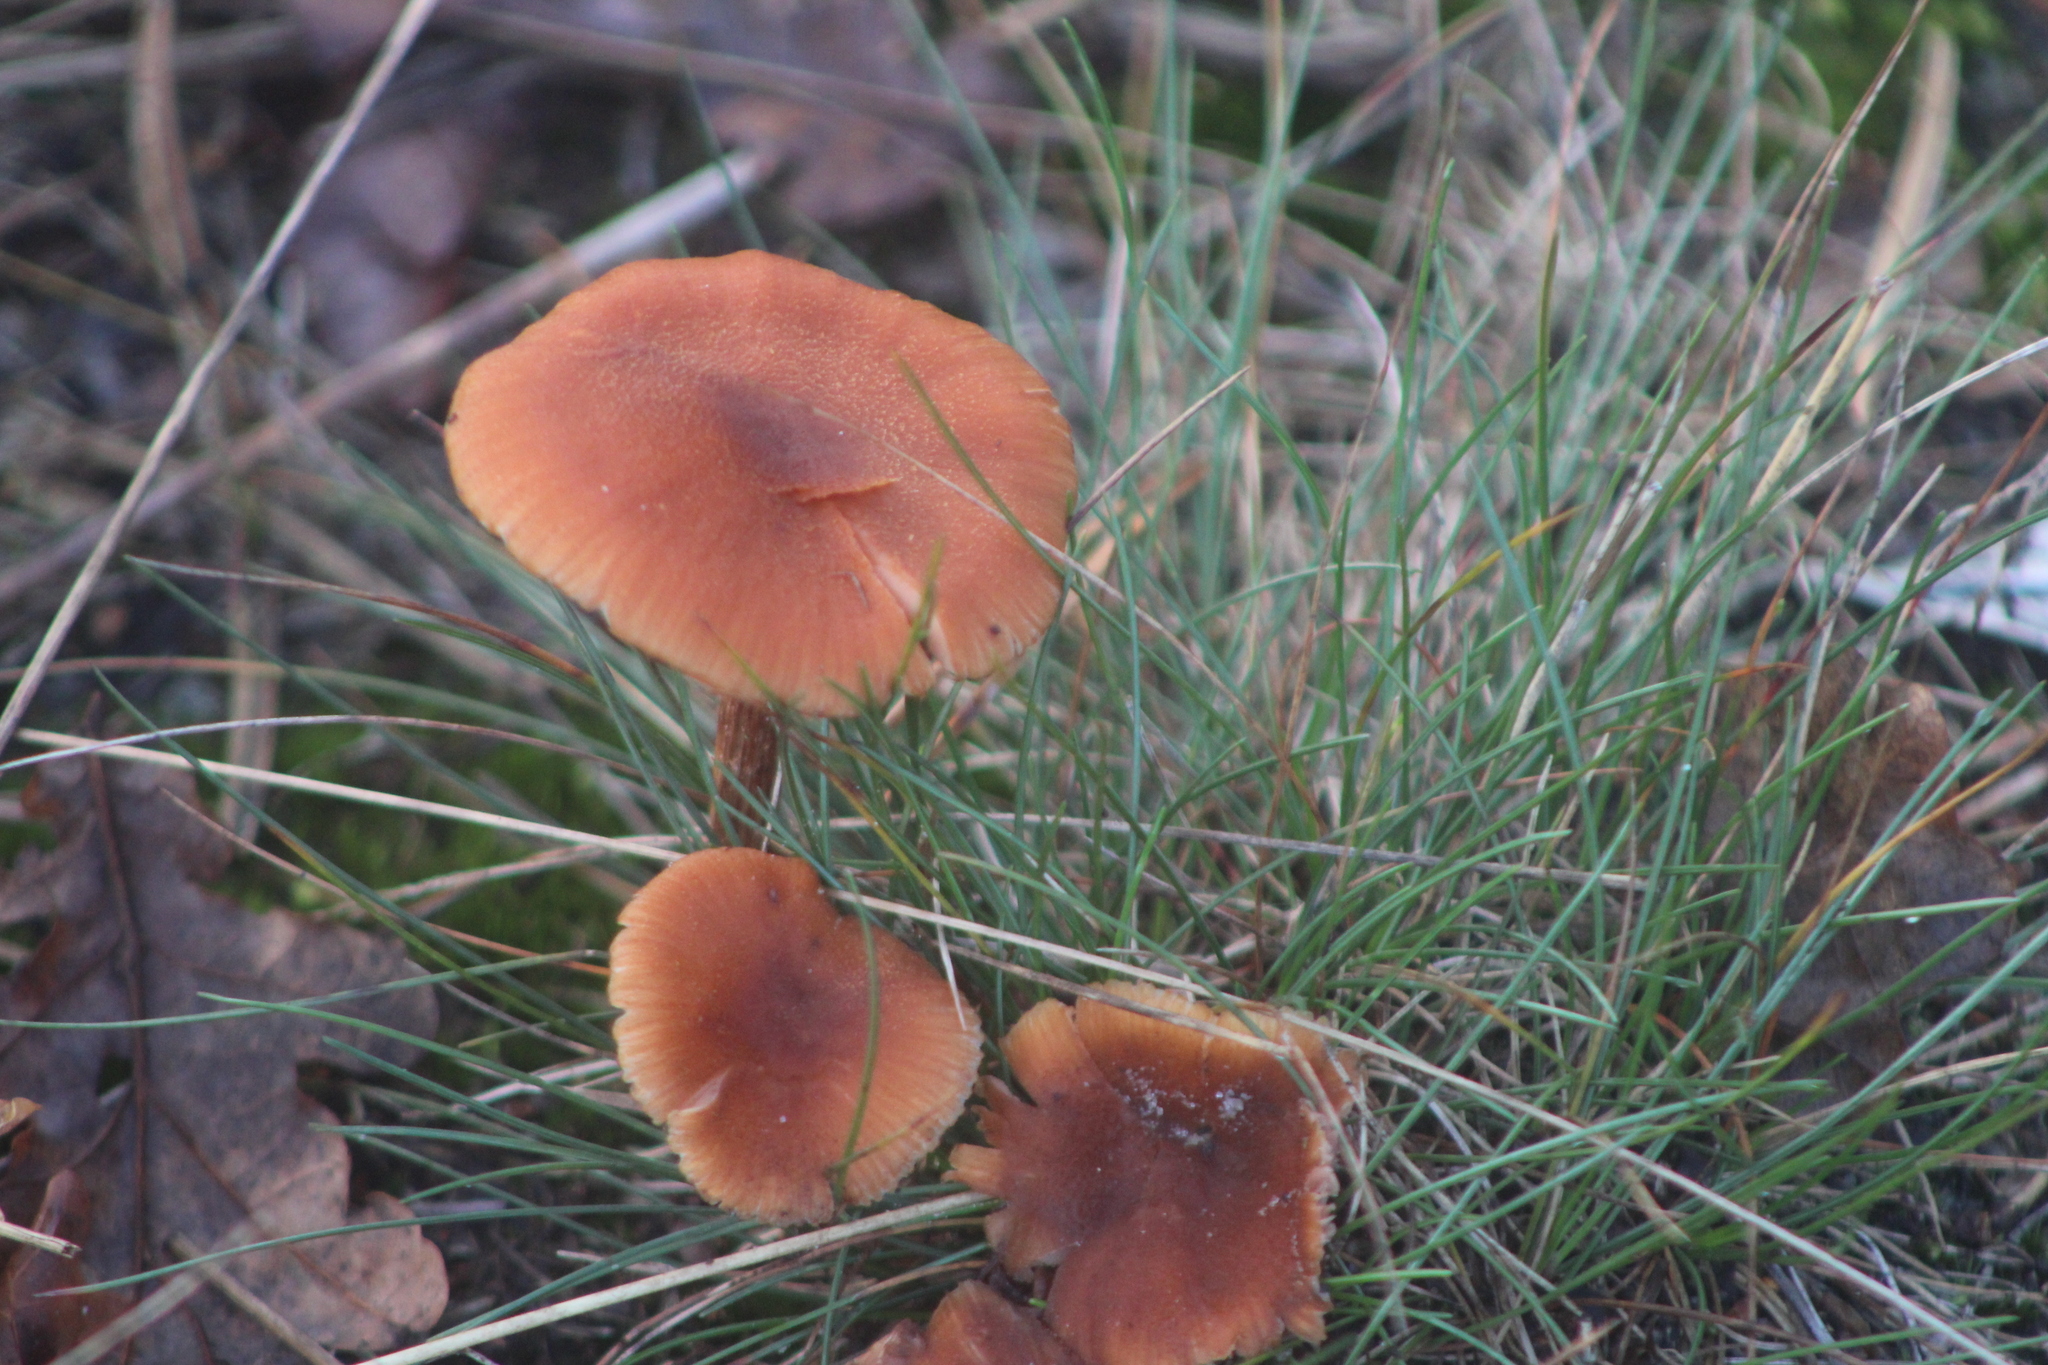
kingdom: Fungi
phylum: Basidiomycota
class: Agaricomycetes
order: Agaricales
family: Hydnangiaceae
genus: Laccaria
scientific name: Laccaria proxima
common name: Scurfy deceiver
